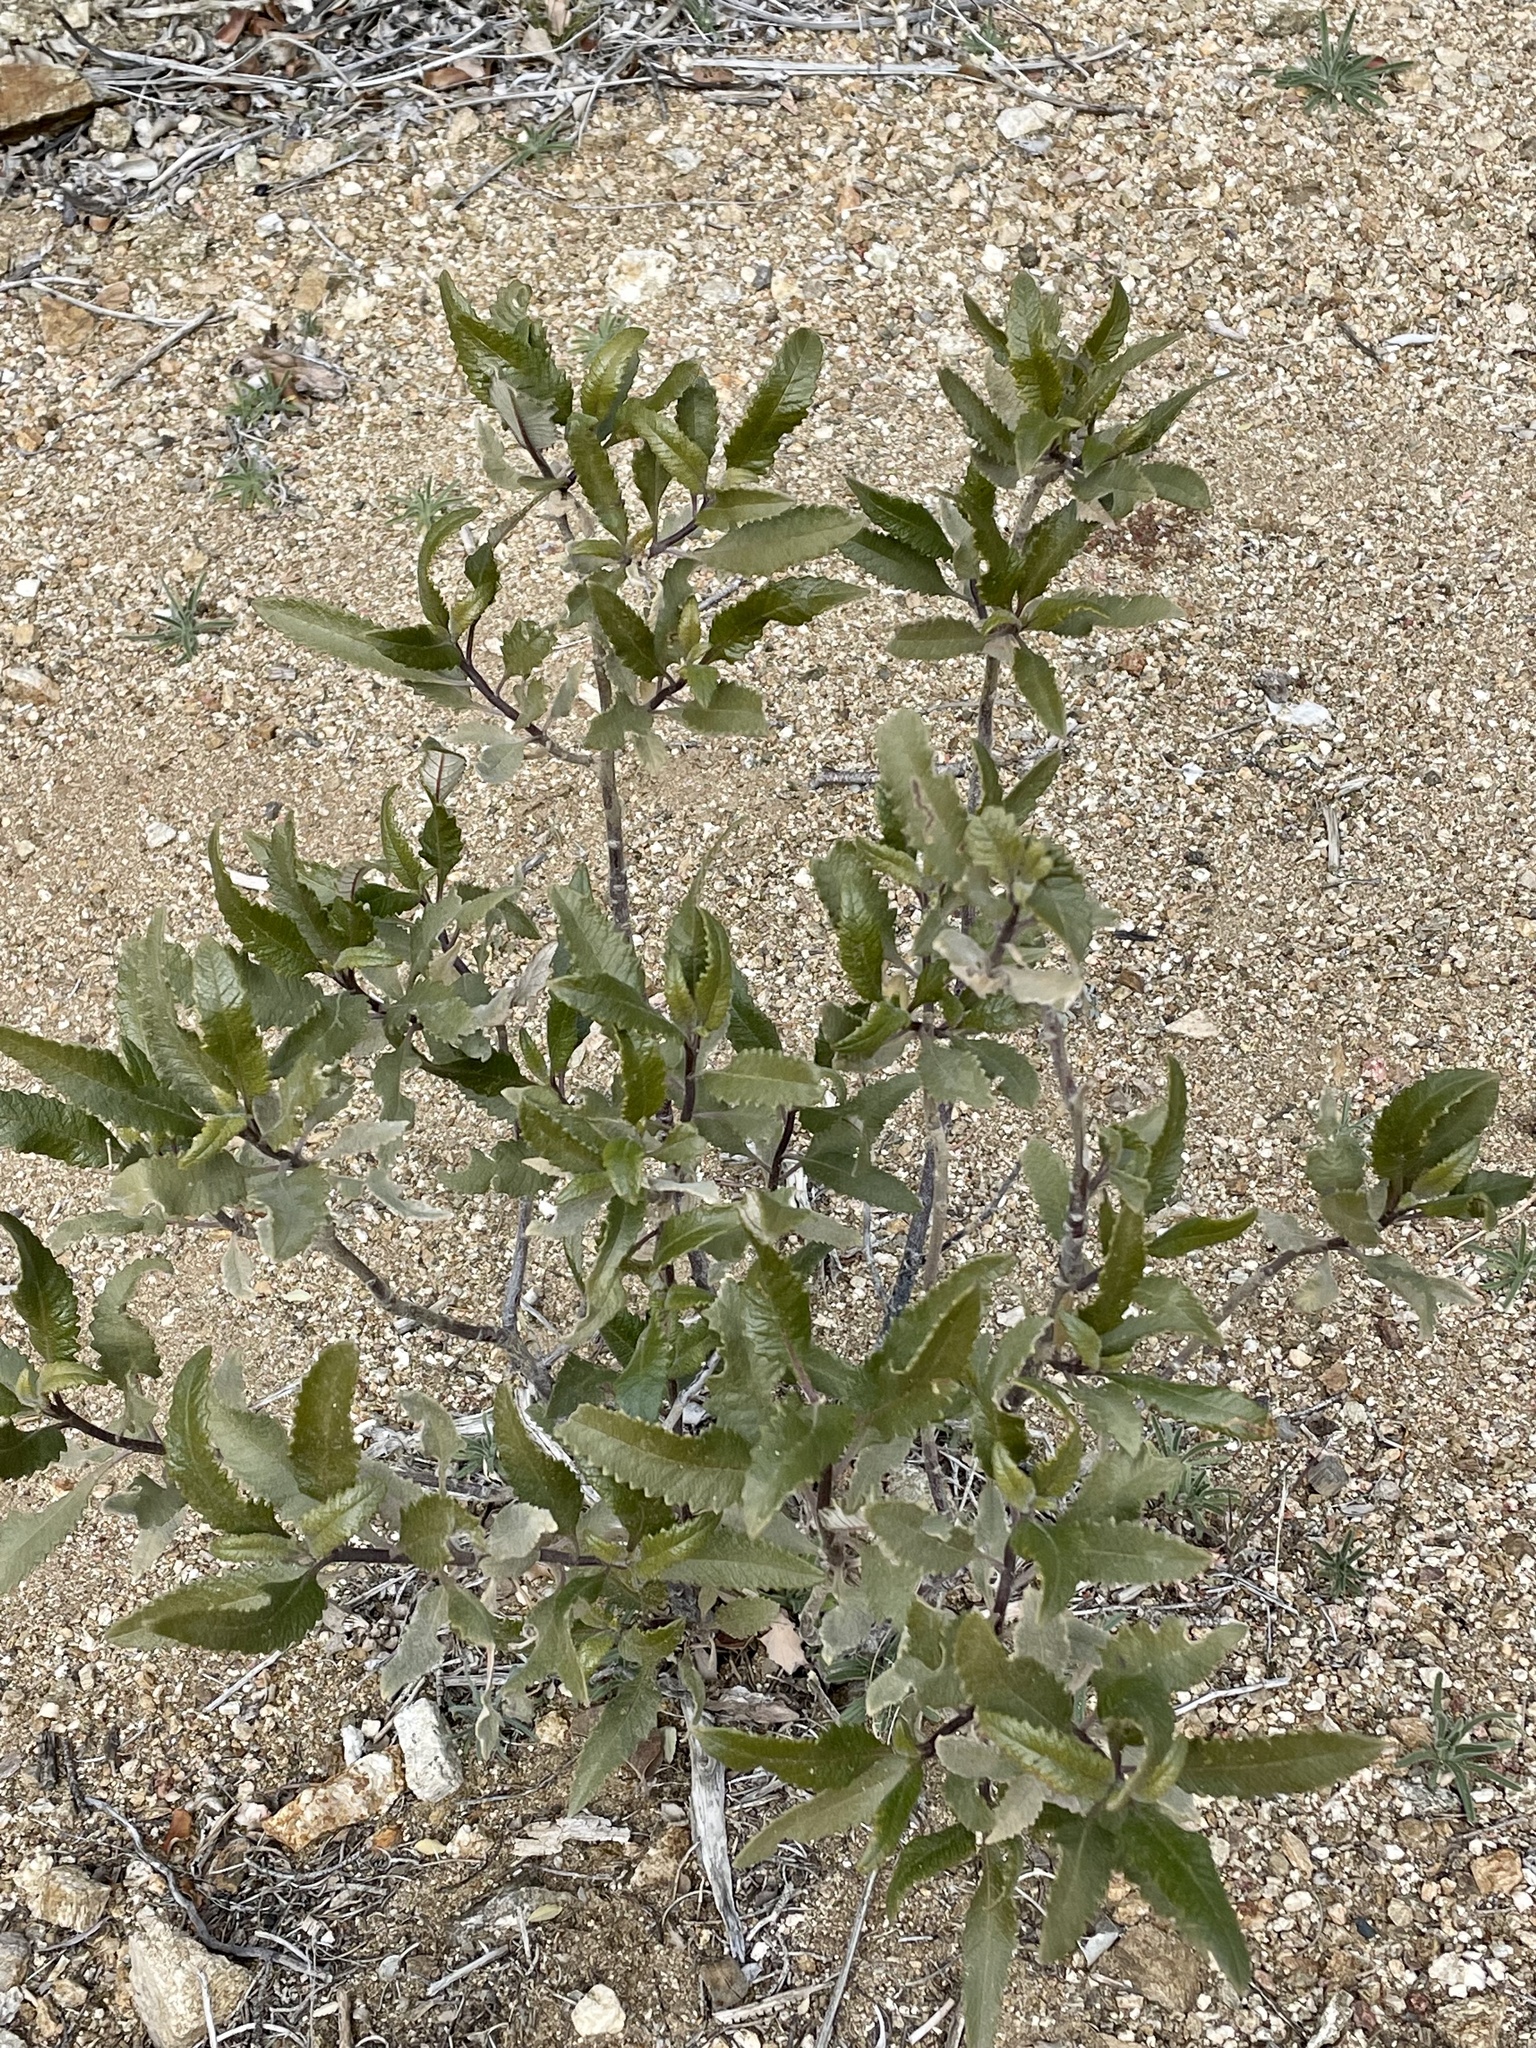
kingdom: Plantae
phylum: Tracheophyta
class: Magnoliopsida
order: Boraginales
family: Namaceae
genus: Eriodictyon
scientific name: Eriodictyon trichocalyx
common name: Hairy yerba-santa
